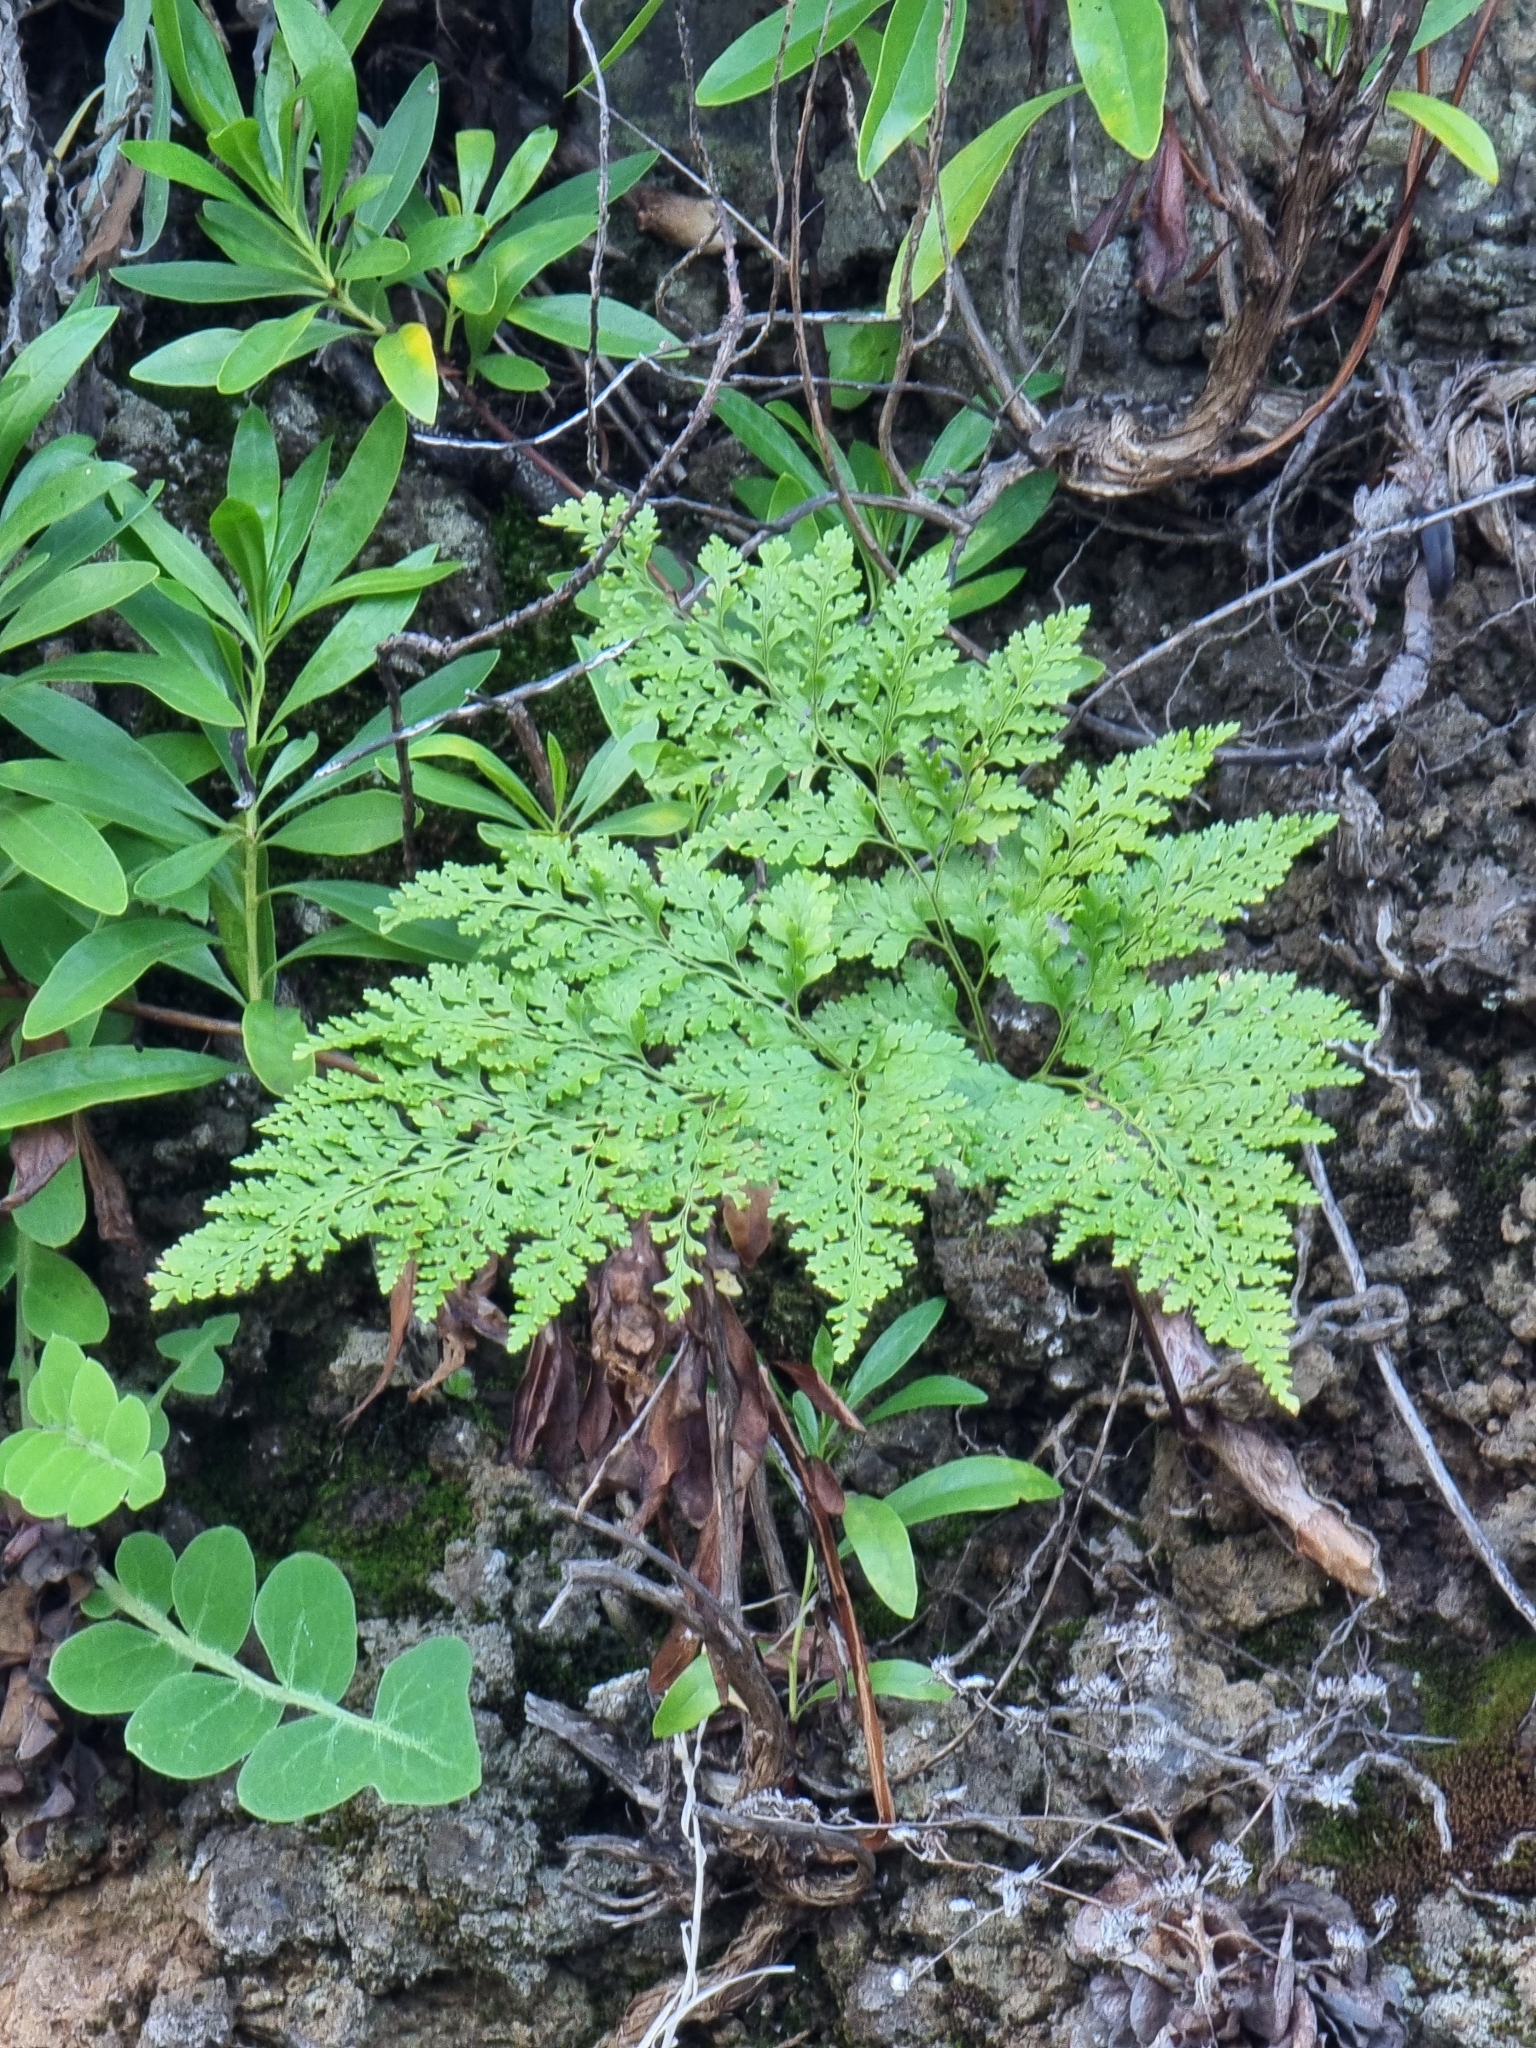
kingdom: Plantae
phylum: Tracheophyta
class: Polypodiopsida
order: Polypodiales
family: Davalliaceae
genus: Davallia
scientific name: Davallia canariensis
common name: Hare's-foot fern
